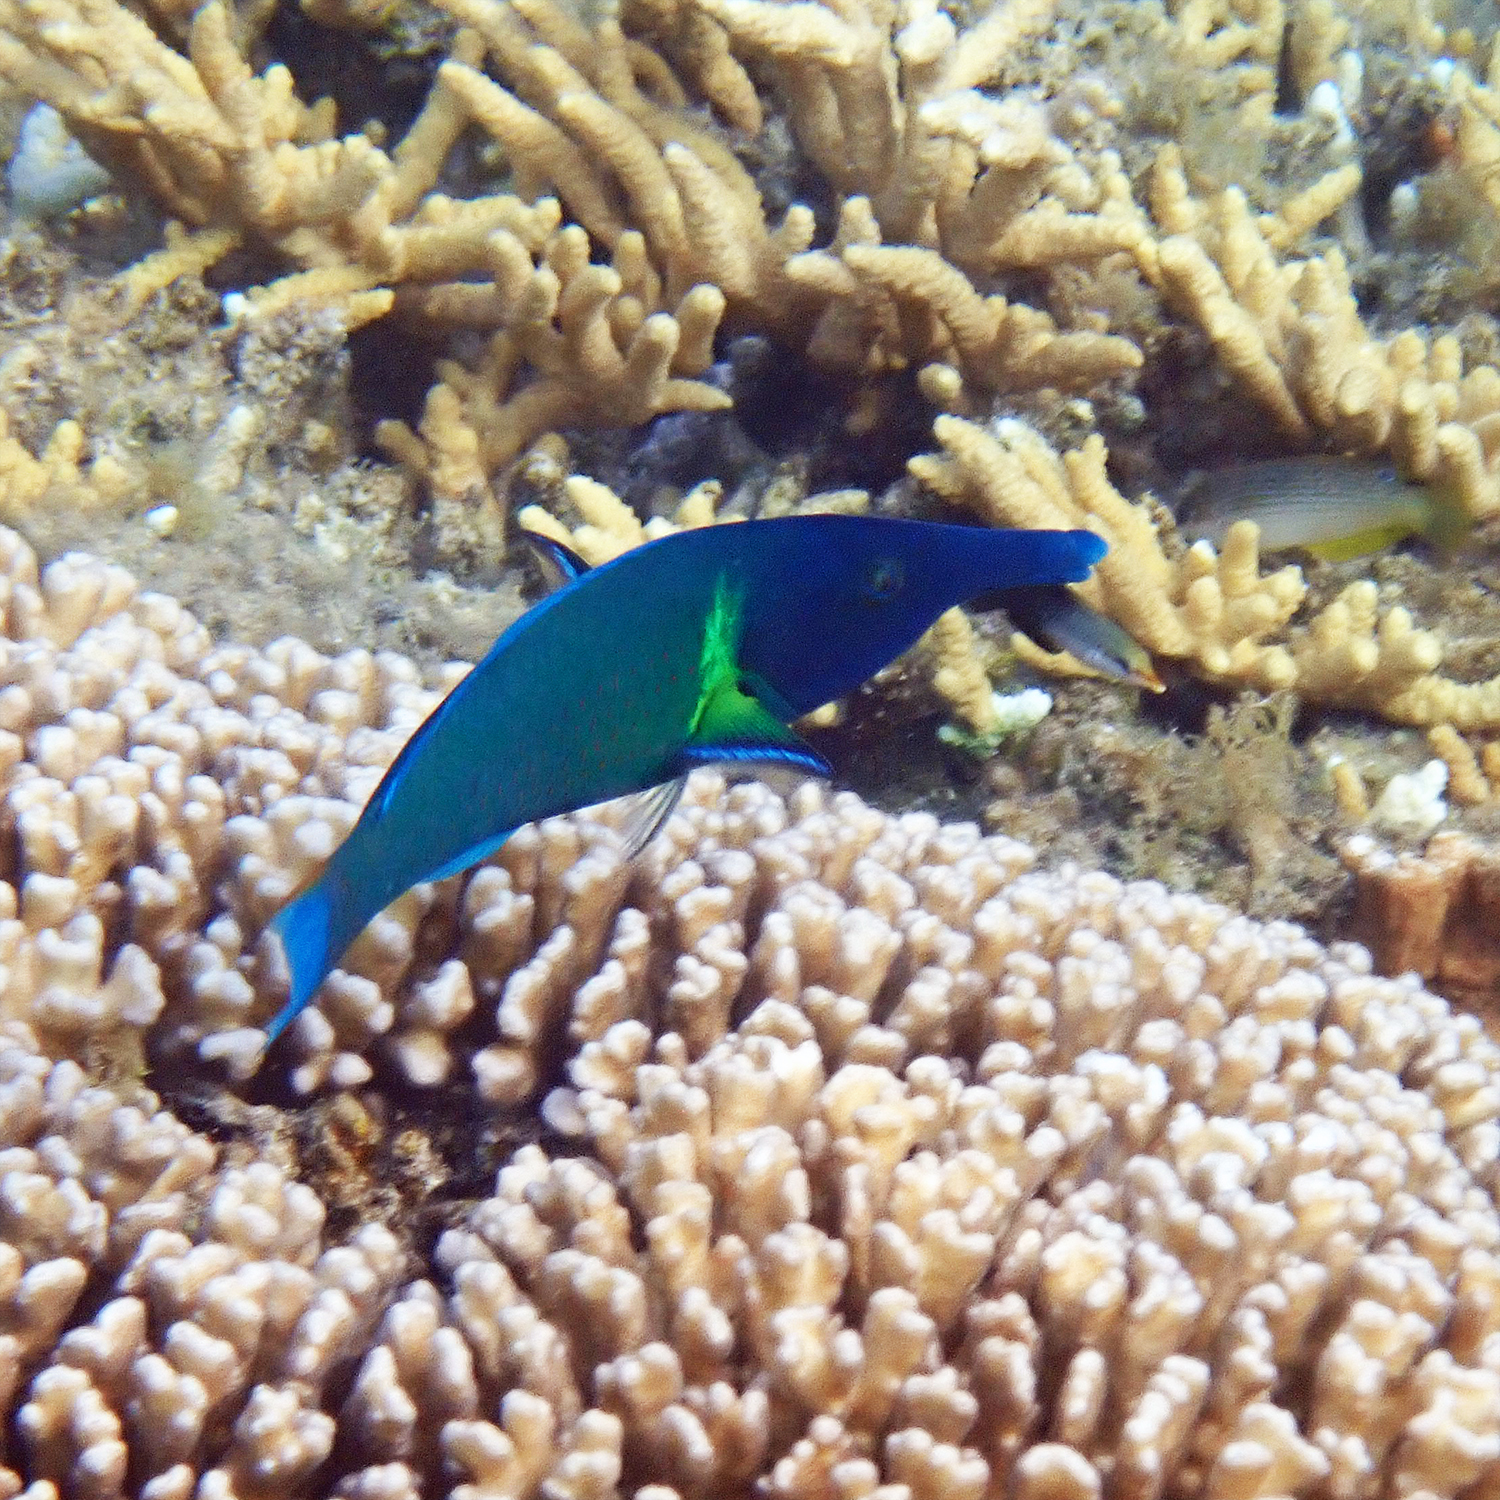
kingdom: Animalia
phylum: Chordata
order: Perciformes
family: Labridae
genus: Gomphosus
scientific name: Gomphosus varius
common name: Bird wrasse
